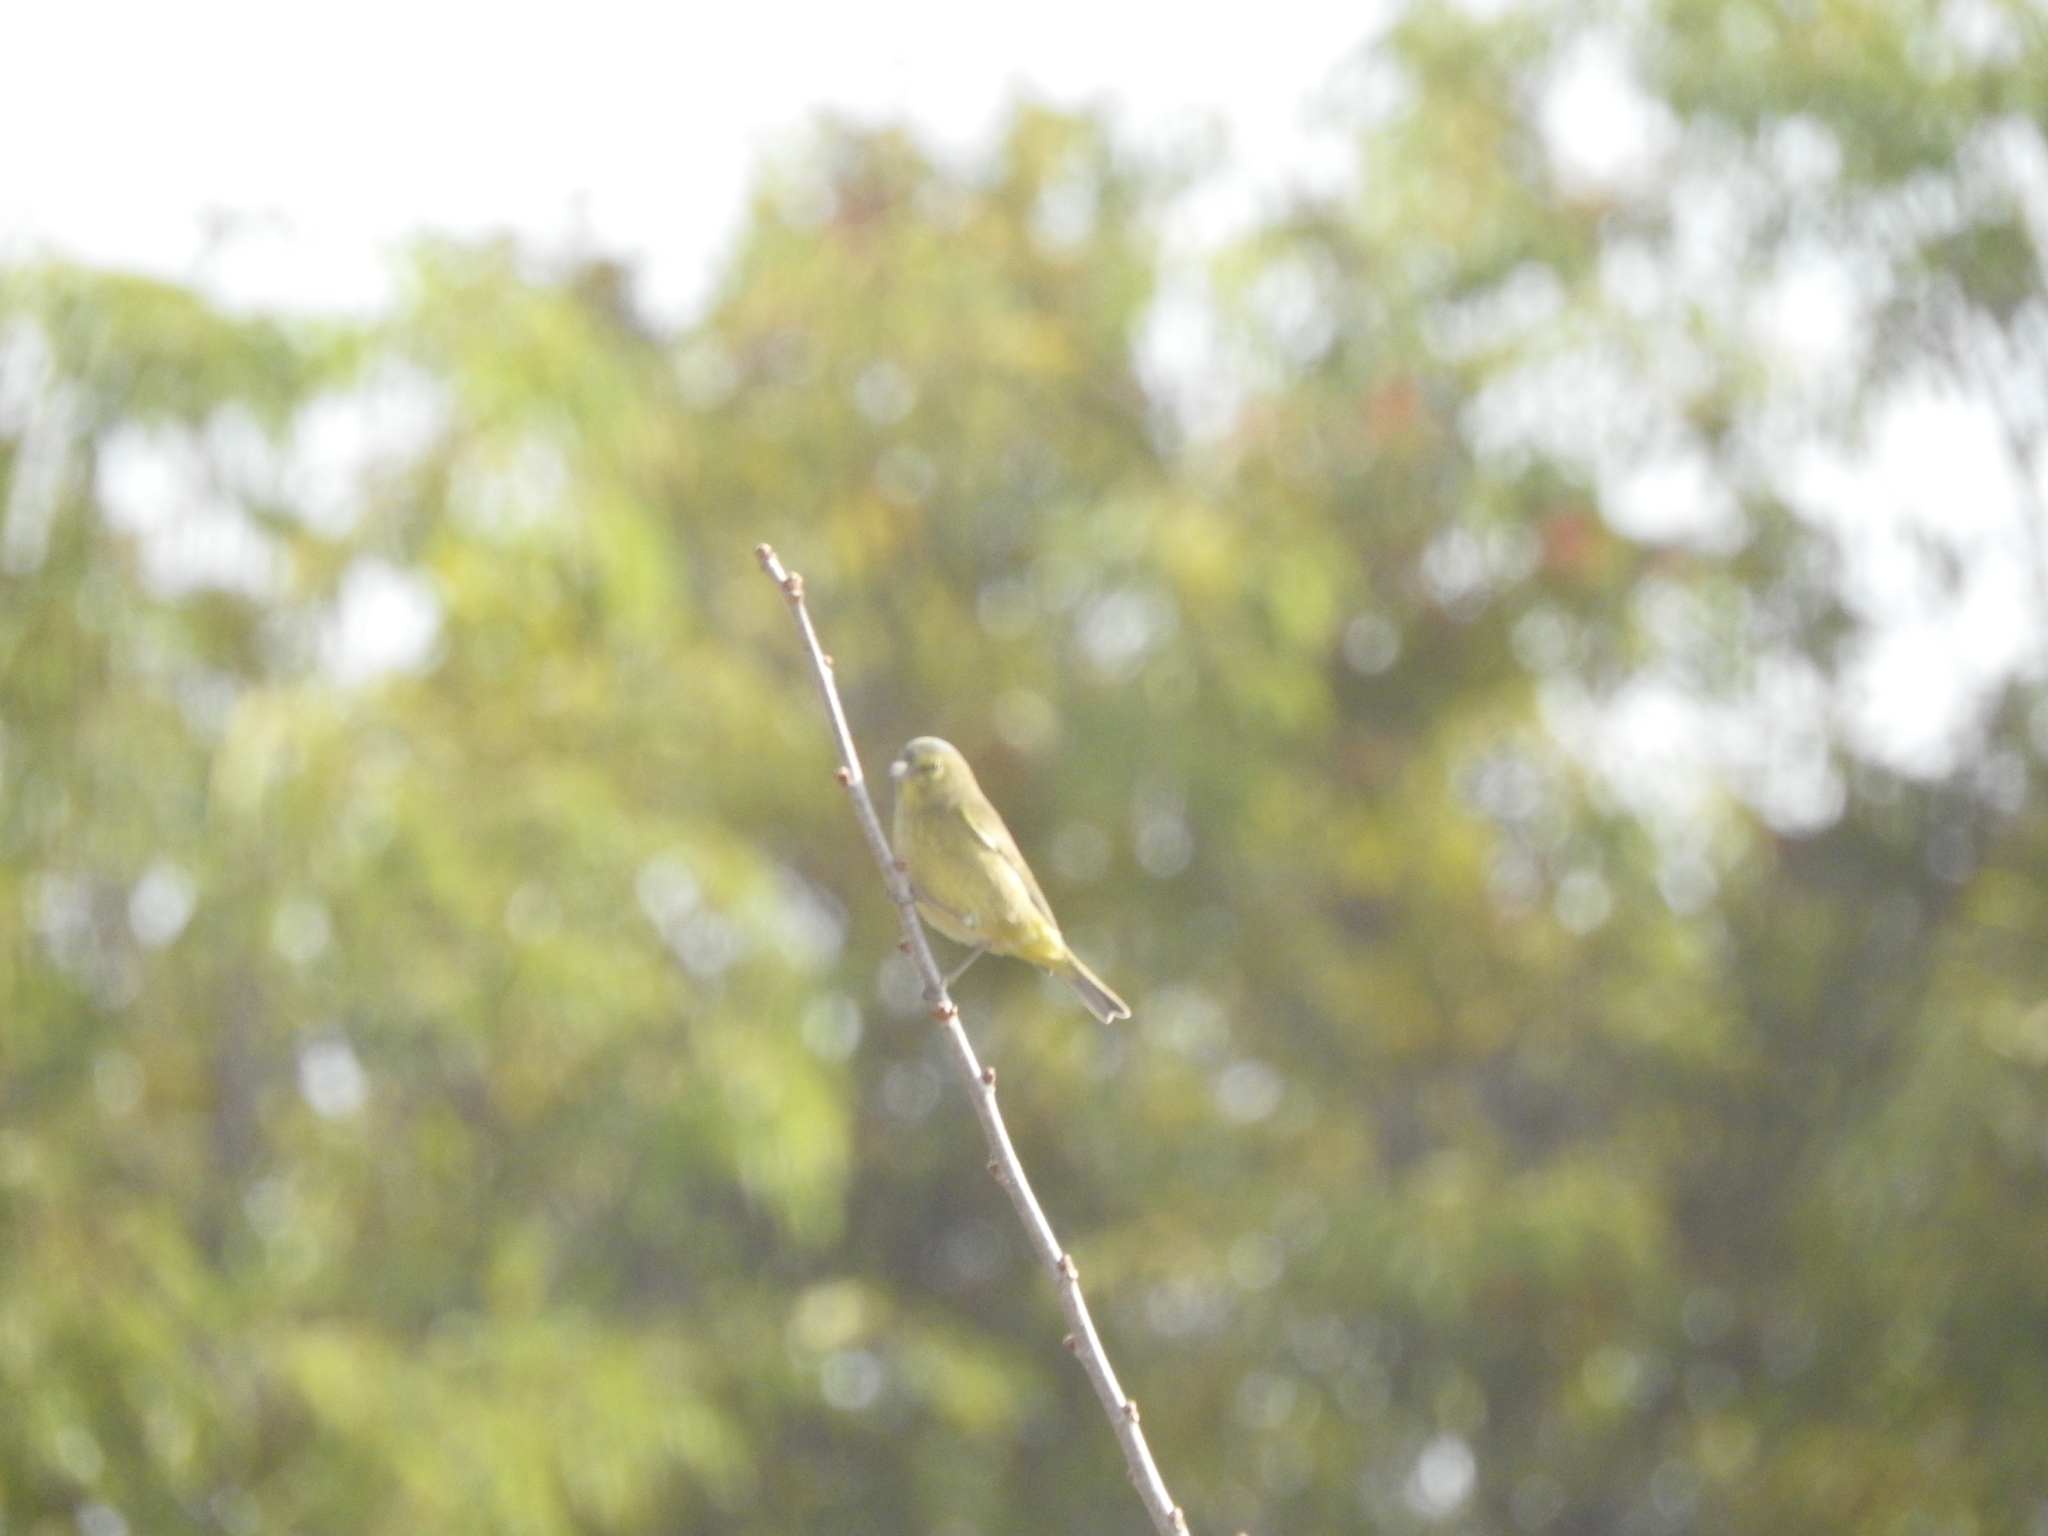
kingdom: Animalia
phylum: Chordata
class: Aves
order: Passeriformes
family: Parulidae
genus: Leiothlypis
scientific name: Leiothlypis celata
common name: Orange-crowned warbler
